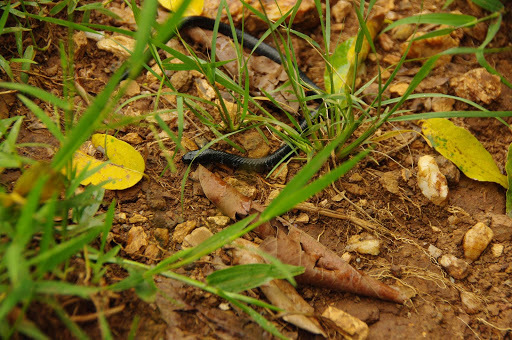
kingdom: Animalia
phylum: Chordata
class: Squamata
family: Elapidae
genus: Elapsoidea
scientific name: Elapsoidea loveridgei
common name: East african garter snake
